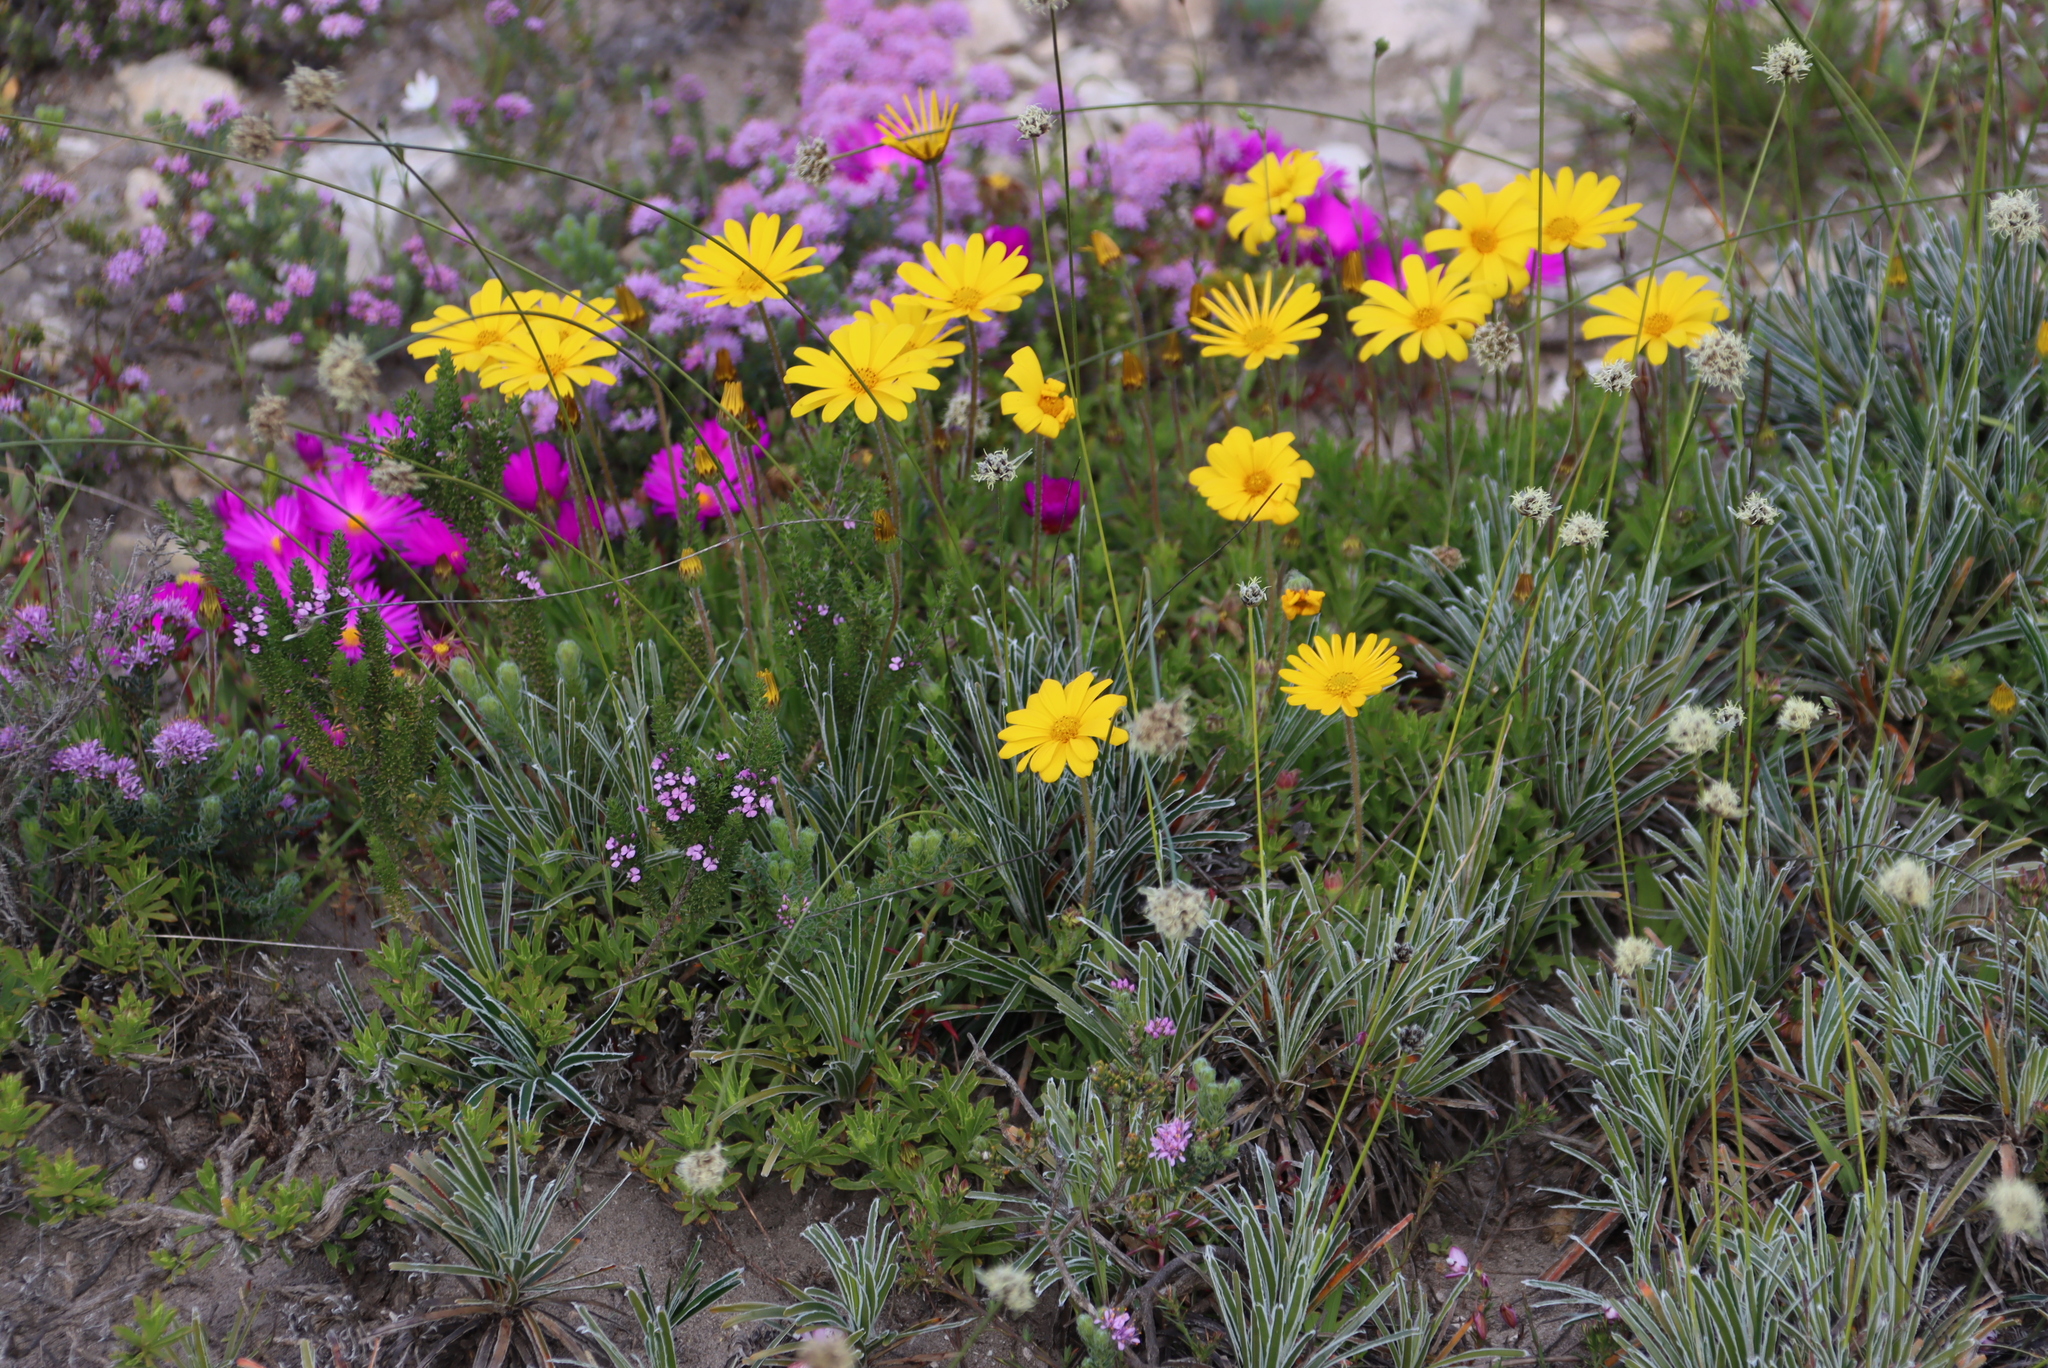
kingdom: Plantae
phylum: Tracheophyta
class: Liliopsida
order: Poales
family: Cyperaceae
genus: Ficinia
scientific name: Ficinia truncata
